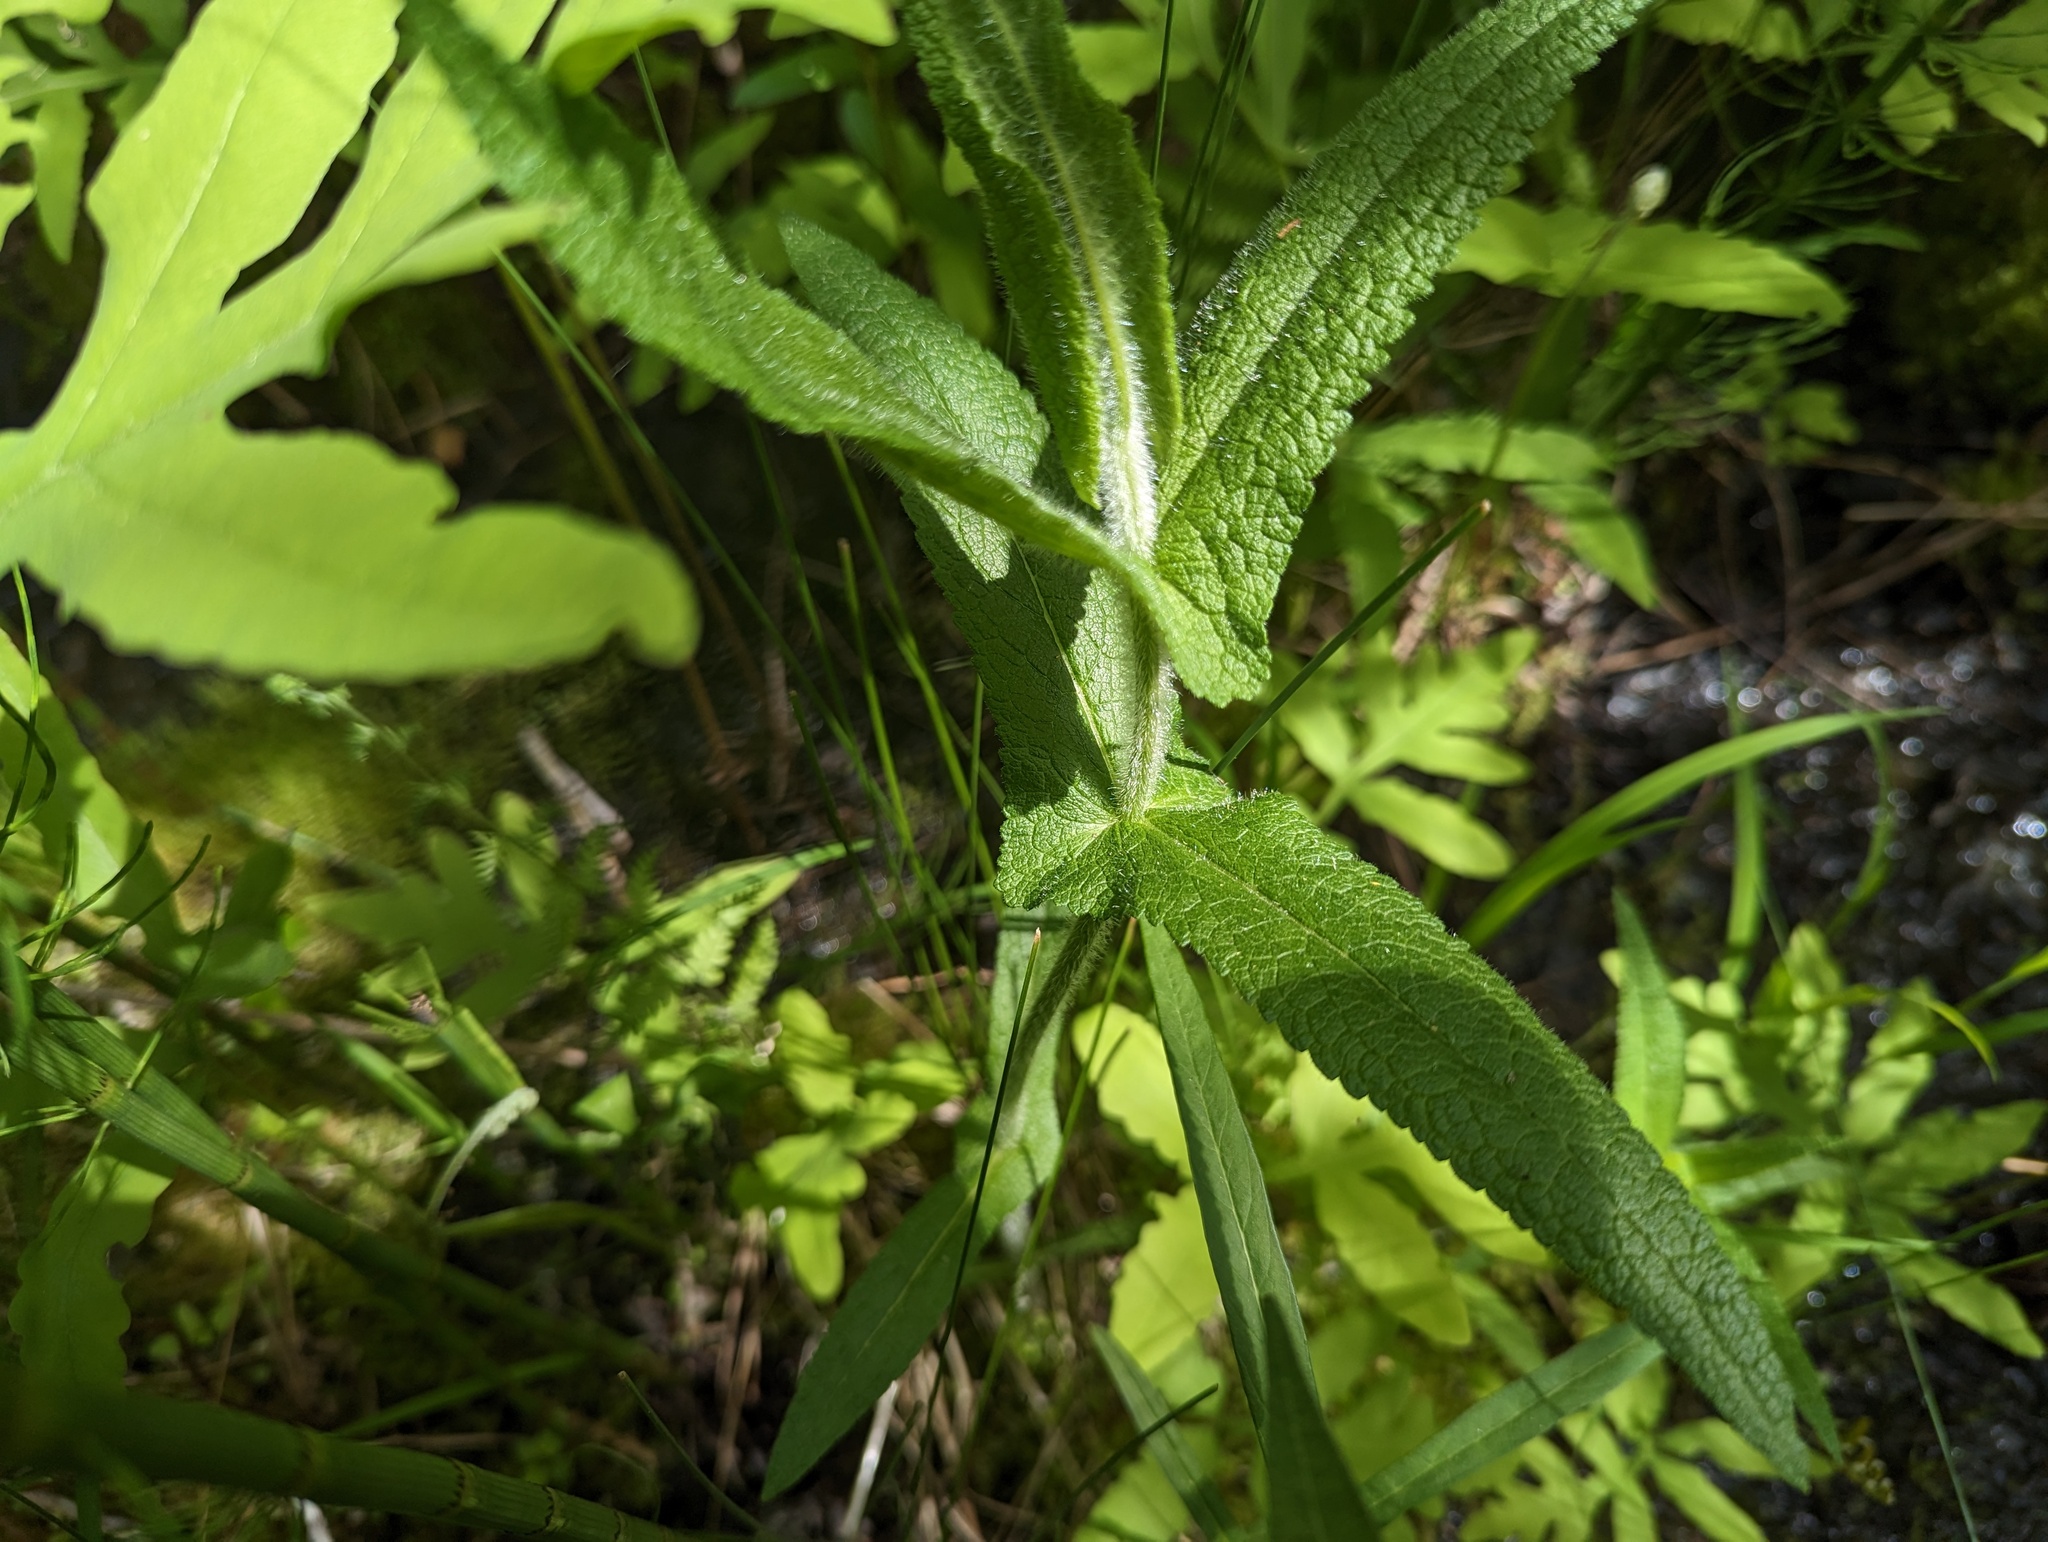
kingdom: Plantae
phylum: Tracheophyta
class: Magnoliopsida
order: Asterales
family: Asteraceae
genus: Eupatorium
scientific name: Eupatorium perfoliatum
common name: Boneset
